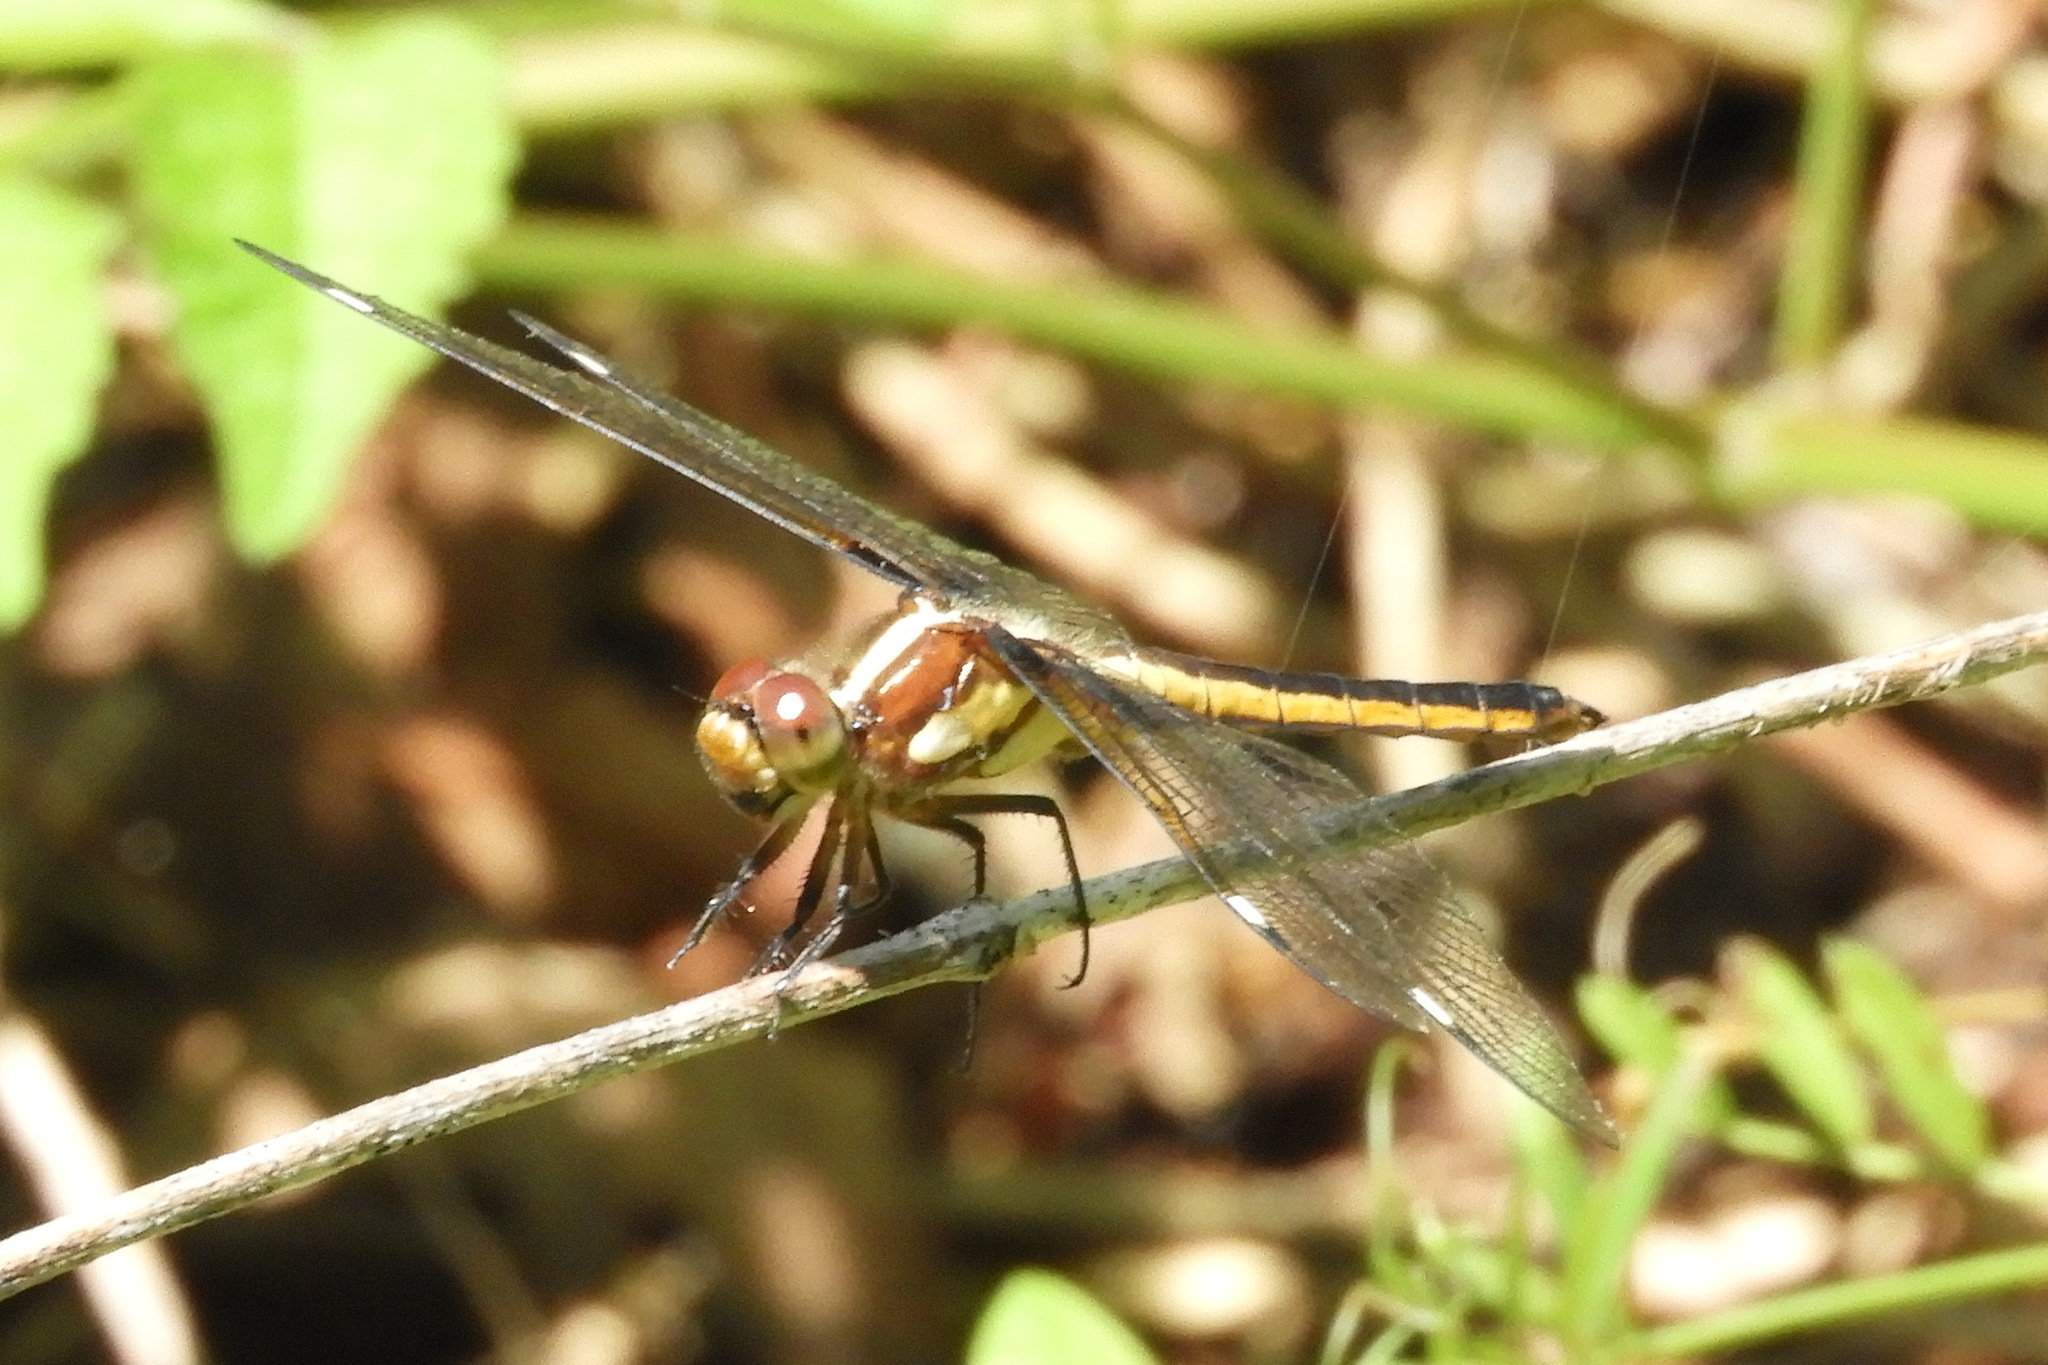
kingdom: Animalia
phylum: Arthropoda
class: Insecta
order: Odonata
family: Libellulidae
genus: Libellula
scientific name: Libellula cyanea
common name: Spangled skimmer
